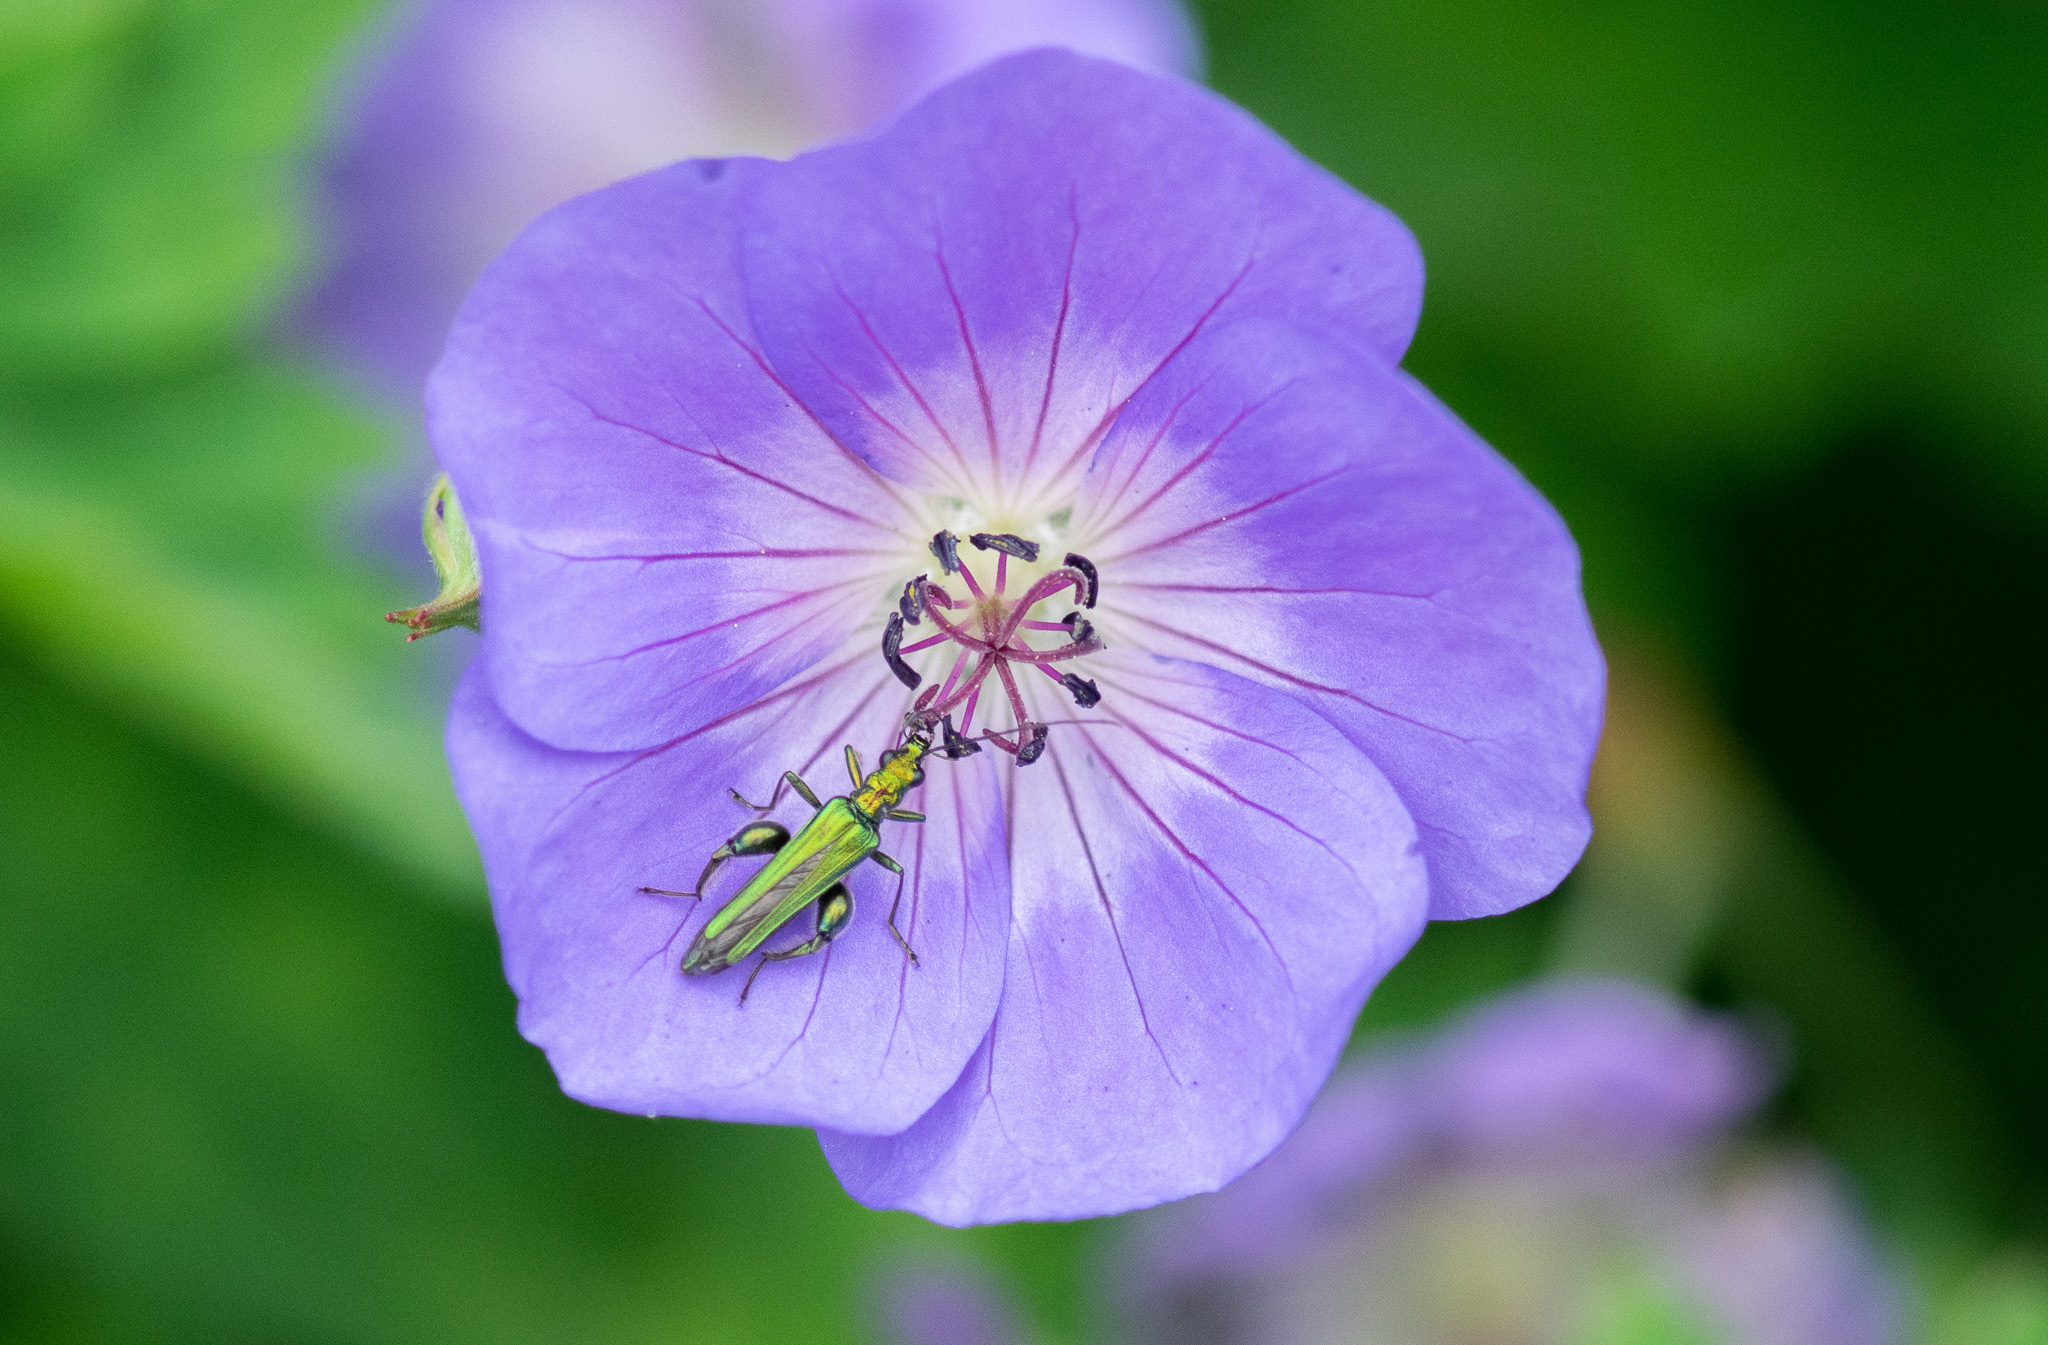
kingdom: Animalia
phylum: Arthropoda
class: Insecta
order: Coleoptera
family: Oedemeridae
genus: Oedemera
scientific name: Oedemera nobilis
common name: Swollen-thighed beetle
